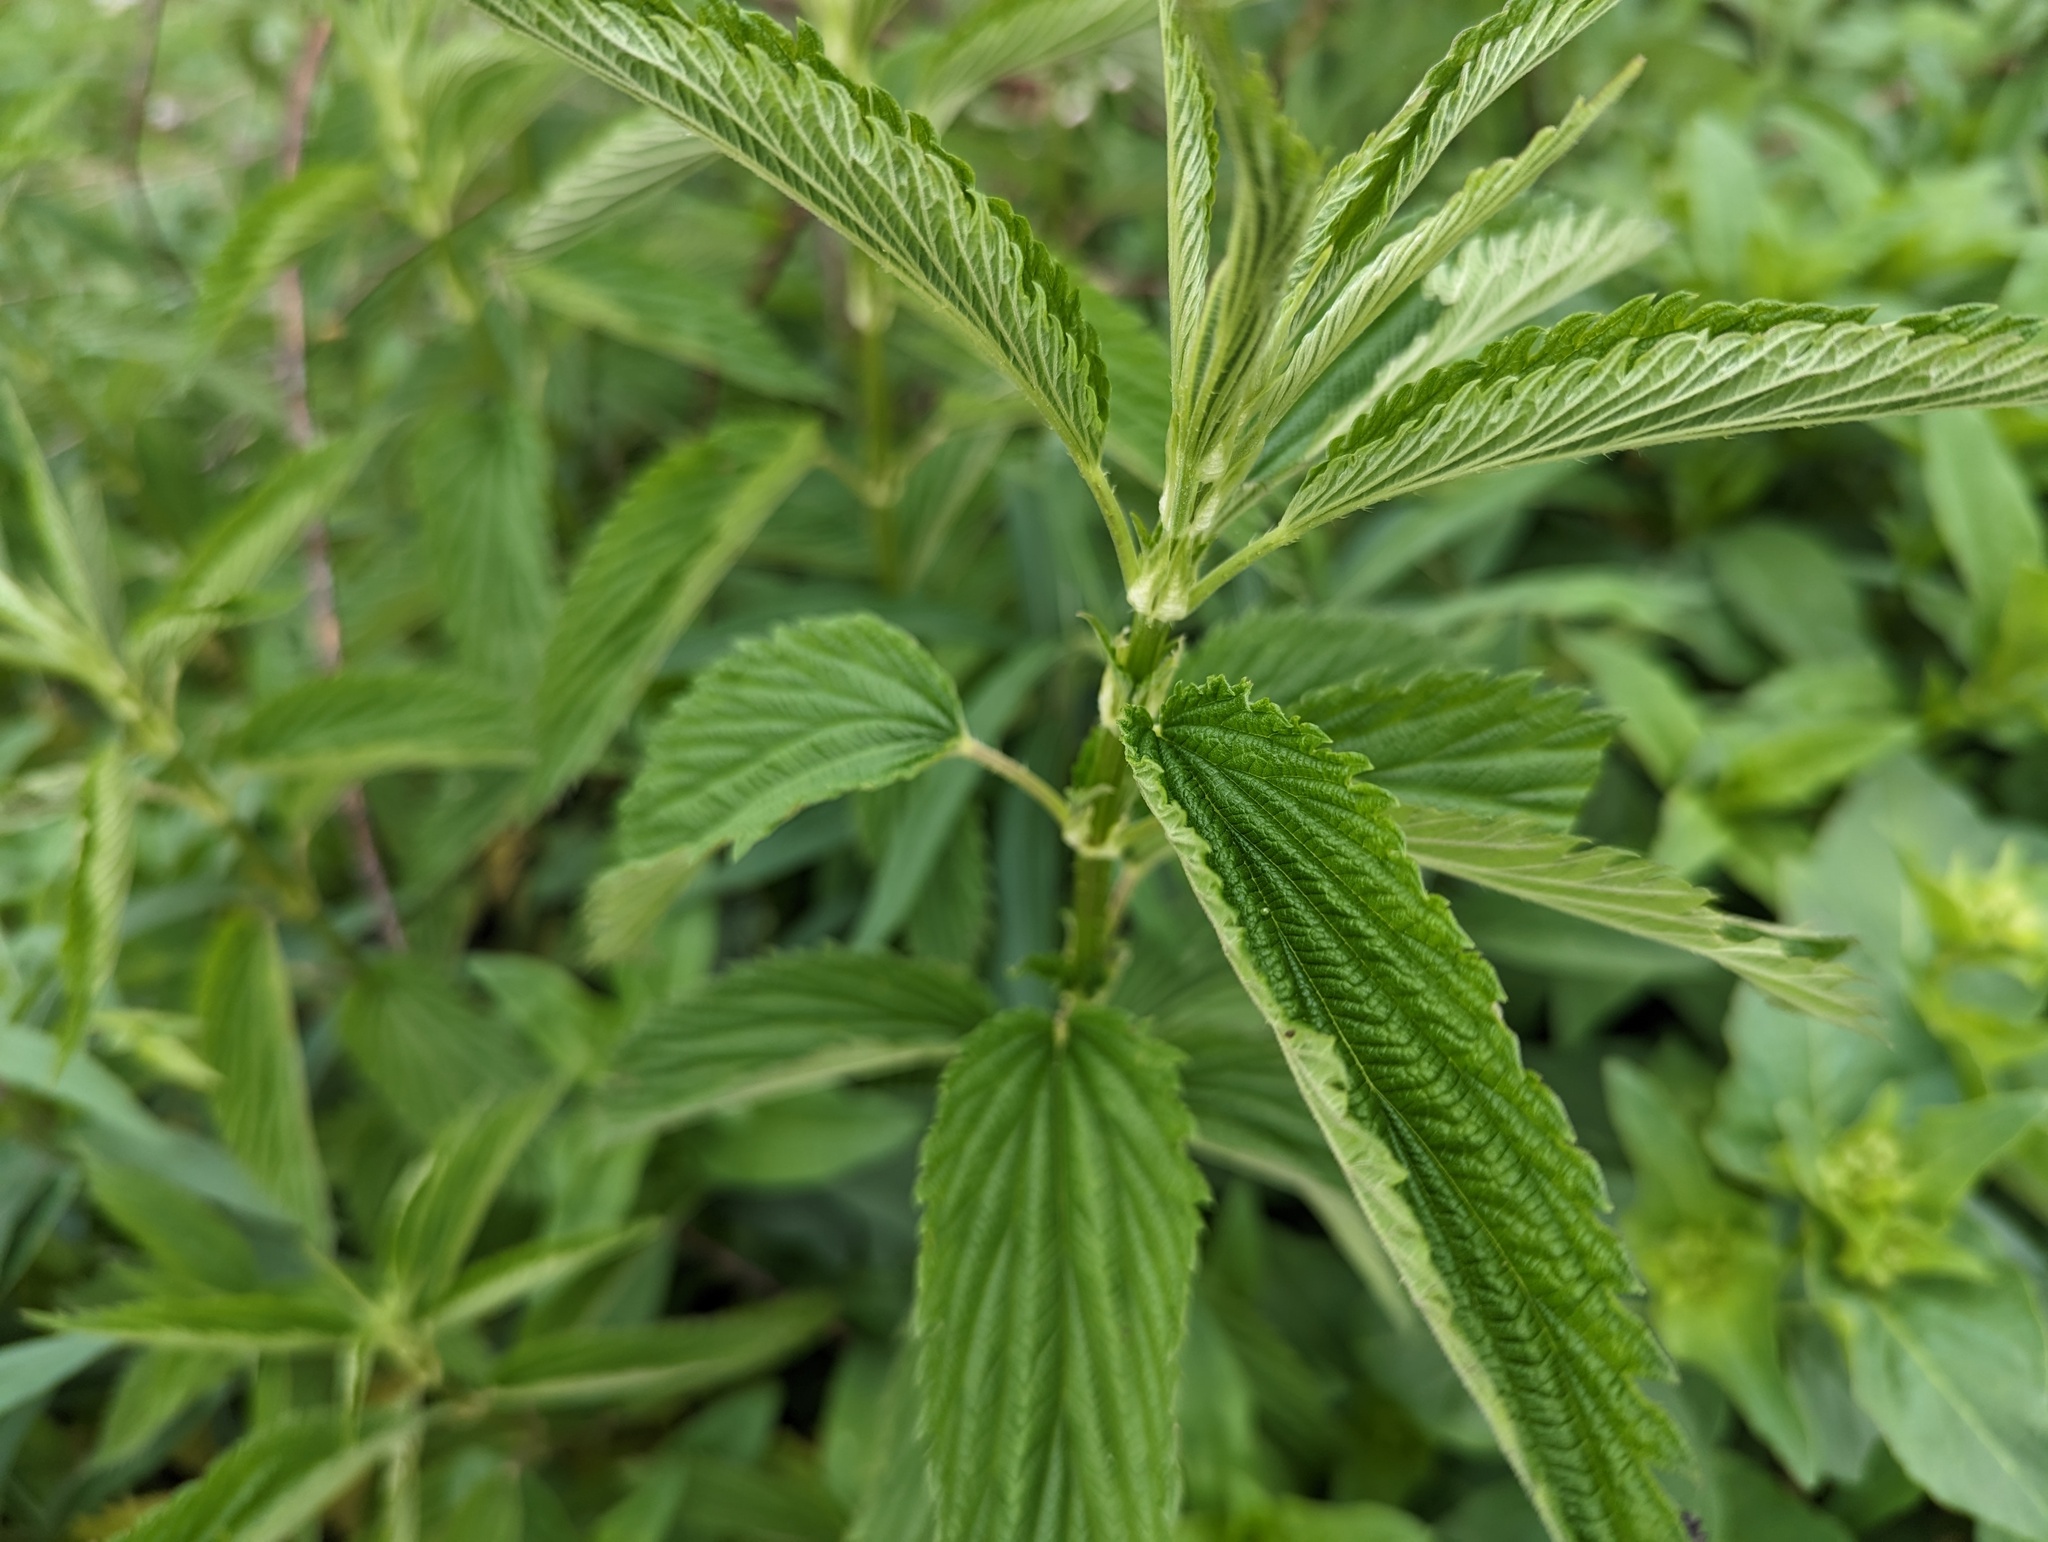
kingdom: Plantae
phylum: Tracheophyta
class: Magnoliopsida
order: Rosales
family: Urticaceae
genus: Urtica
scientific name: Urtica gracilis
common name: Slender stinging nettle
